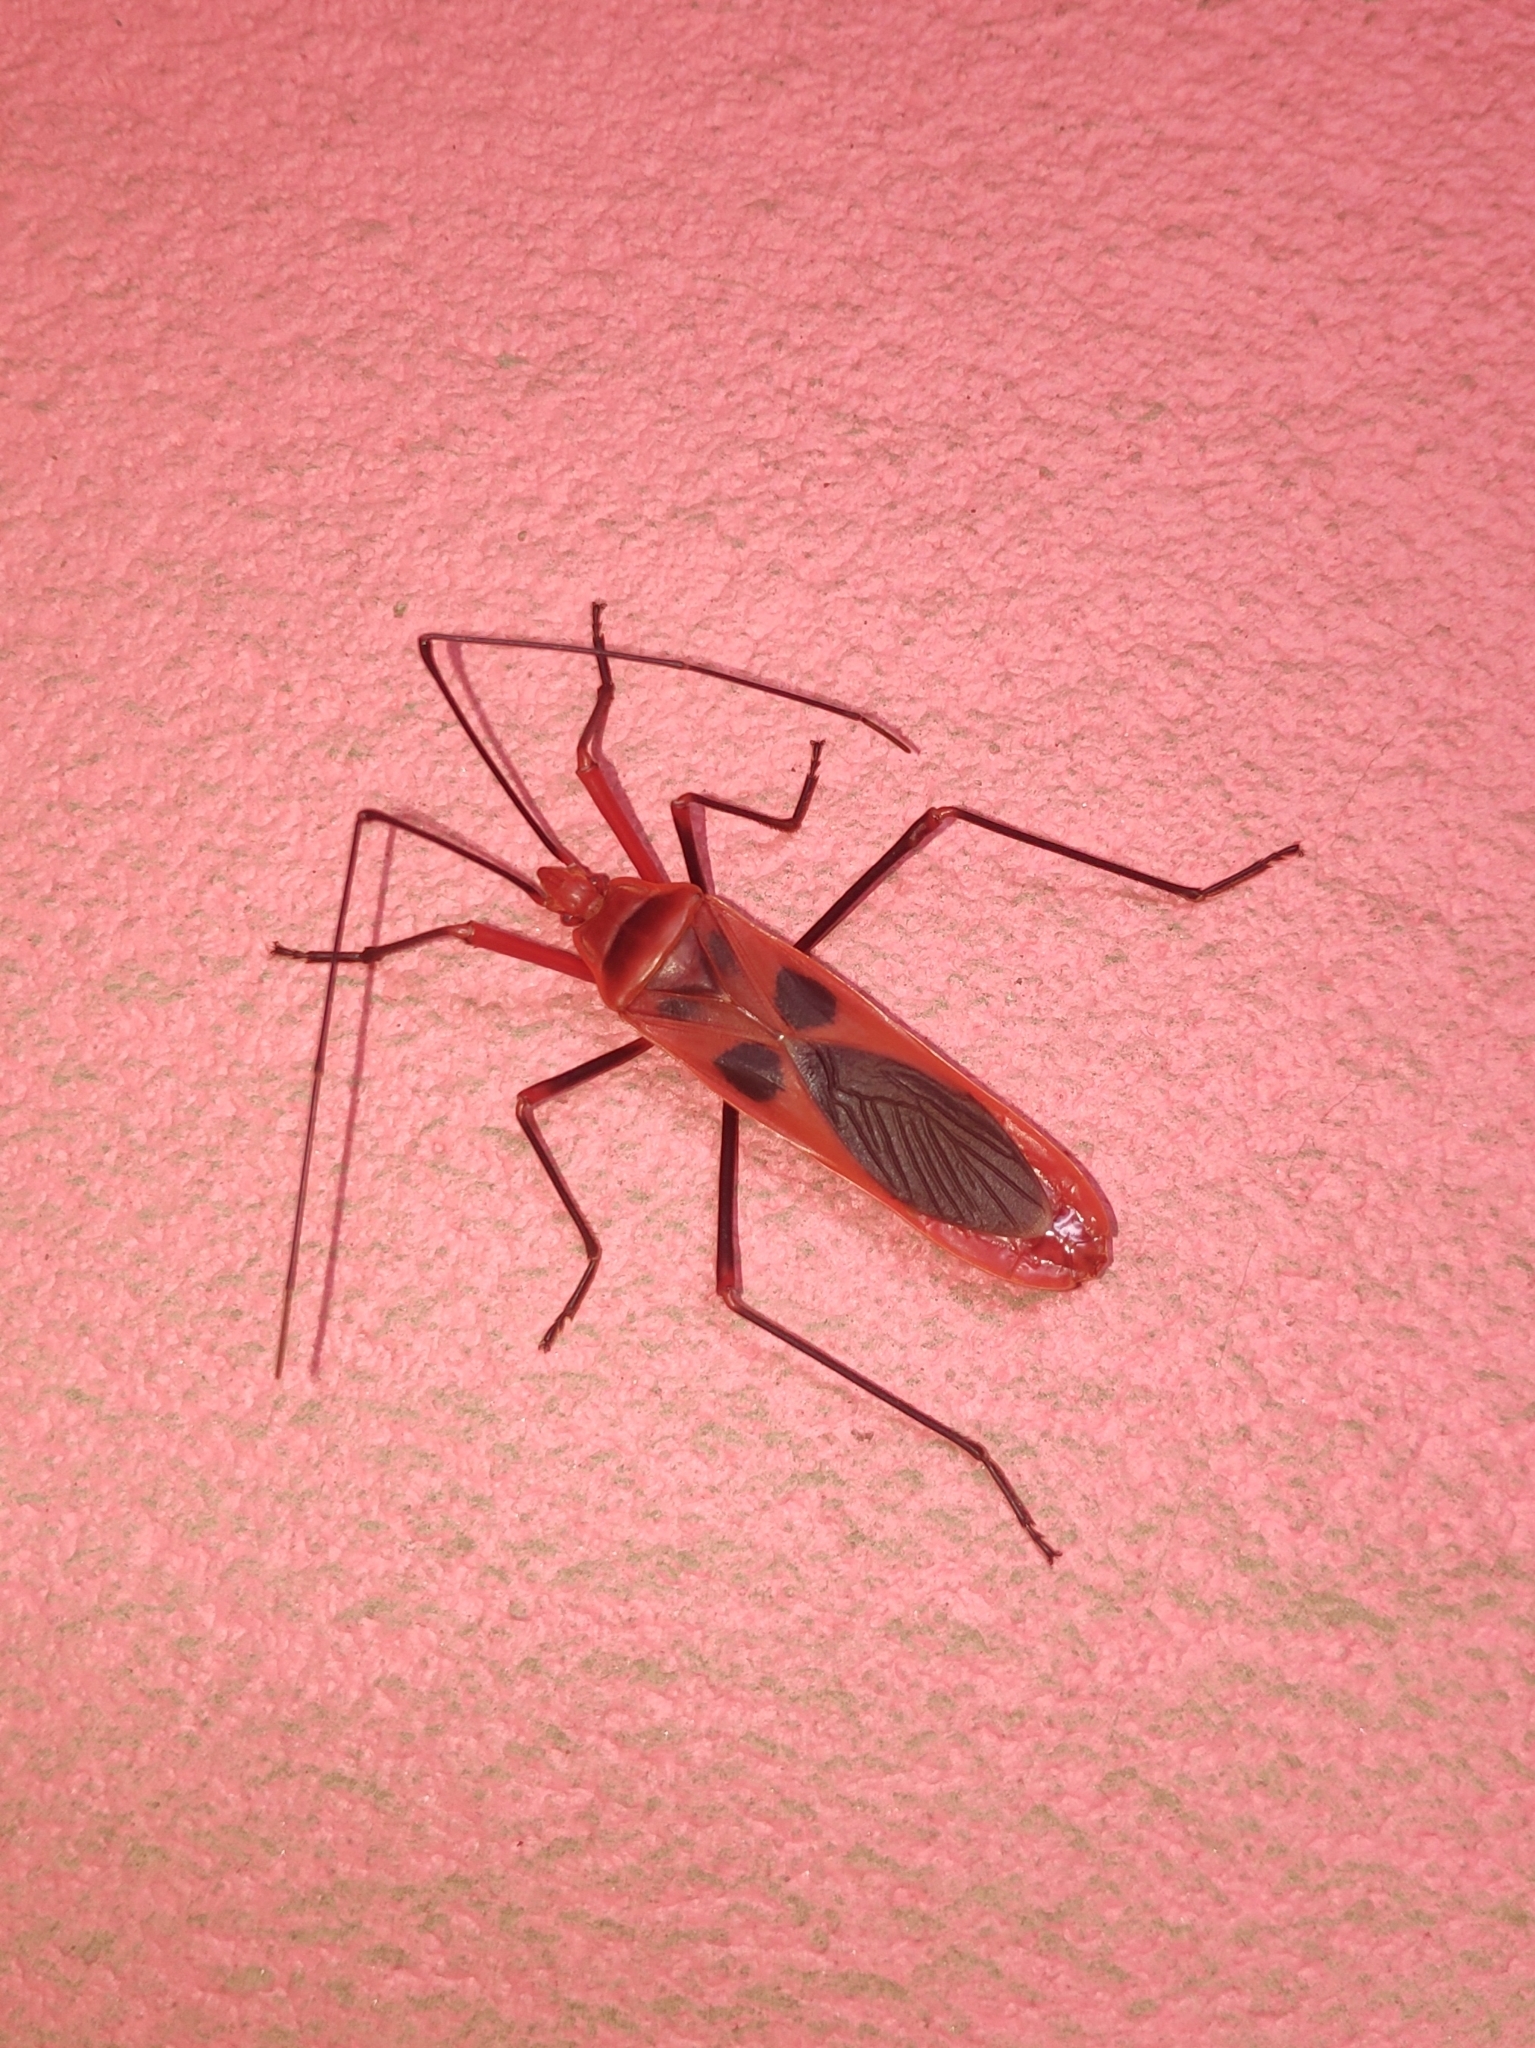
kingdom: Animalia
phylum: Arthropoda
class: Insecta
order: Hemiptera
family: Largidae
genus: Macrocheraia
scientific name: Macrocheraia grandis
